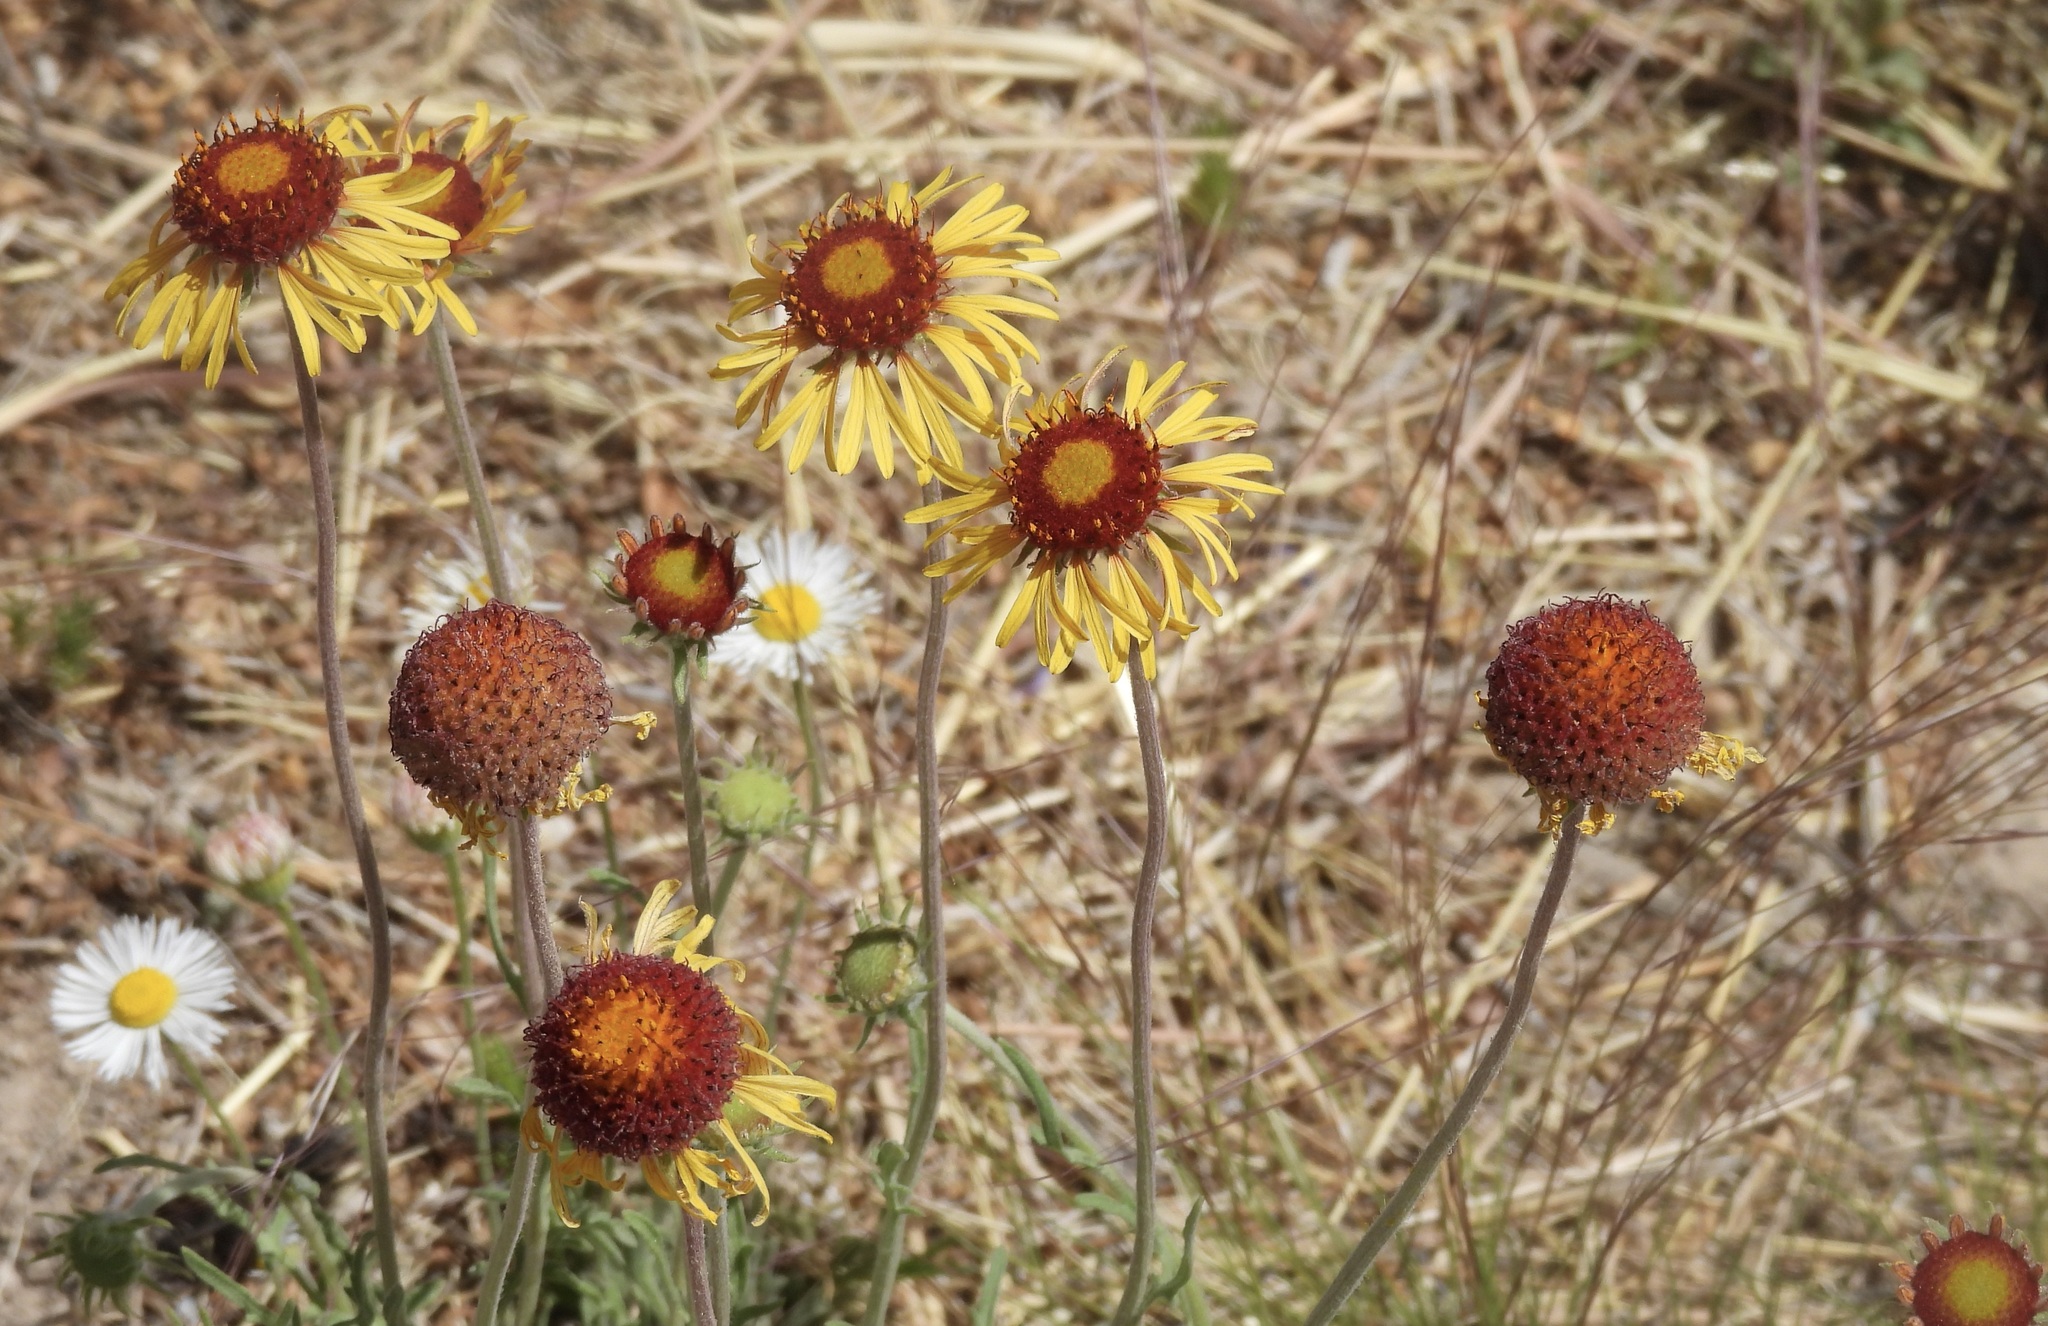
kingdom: Plantae
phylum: Tracheophyta
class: Magnoliopsida
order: Asterales
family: Asteraceae
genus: Gaillardia
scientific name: Gaillardia pinnatifida
